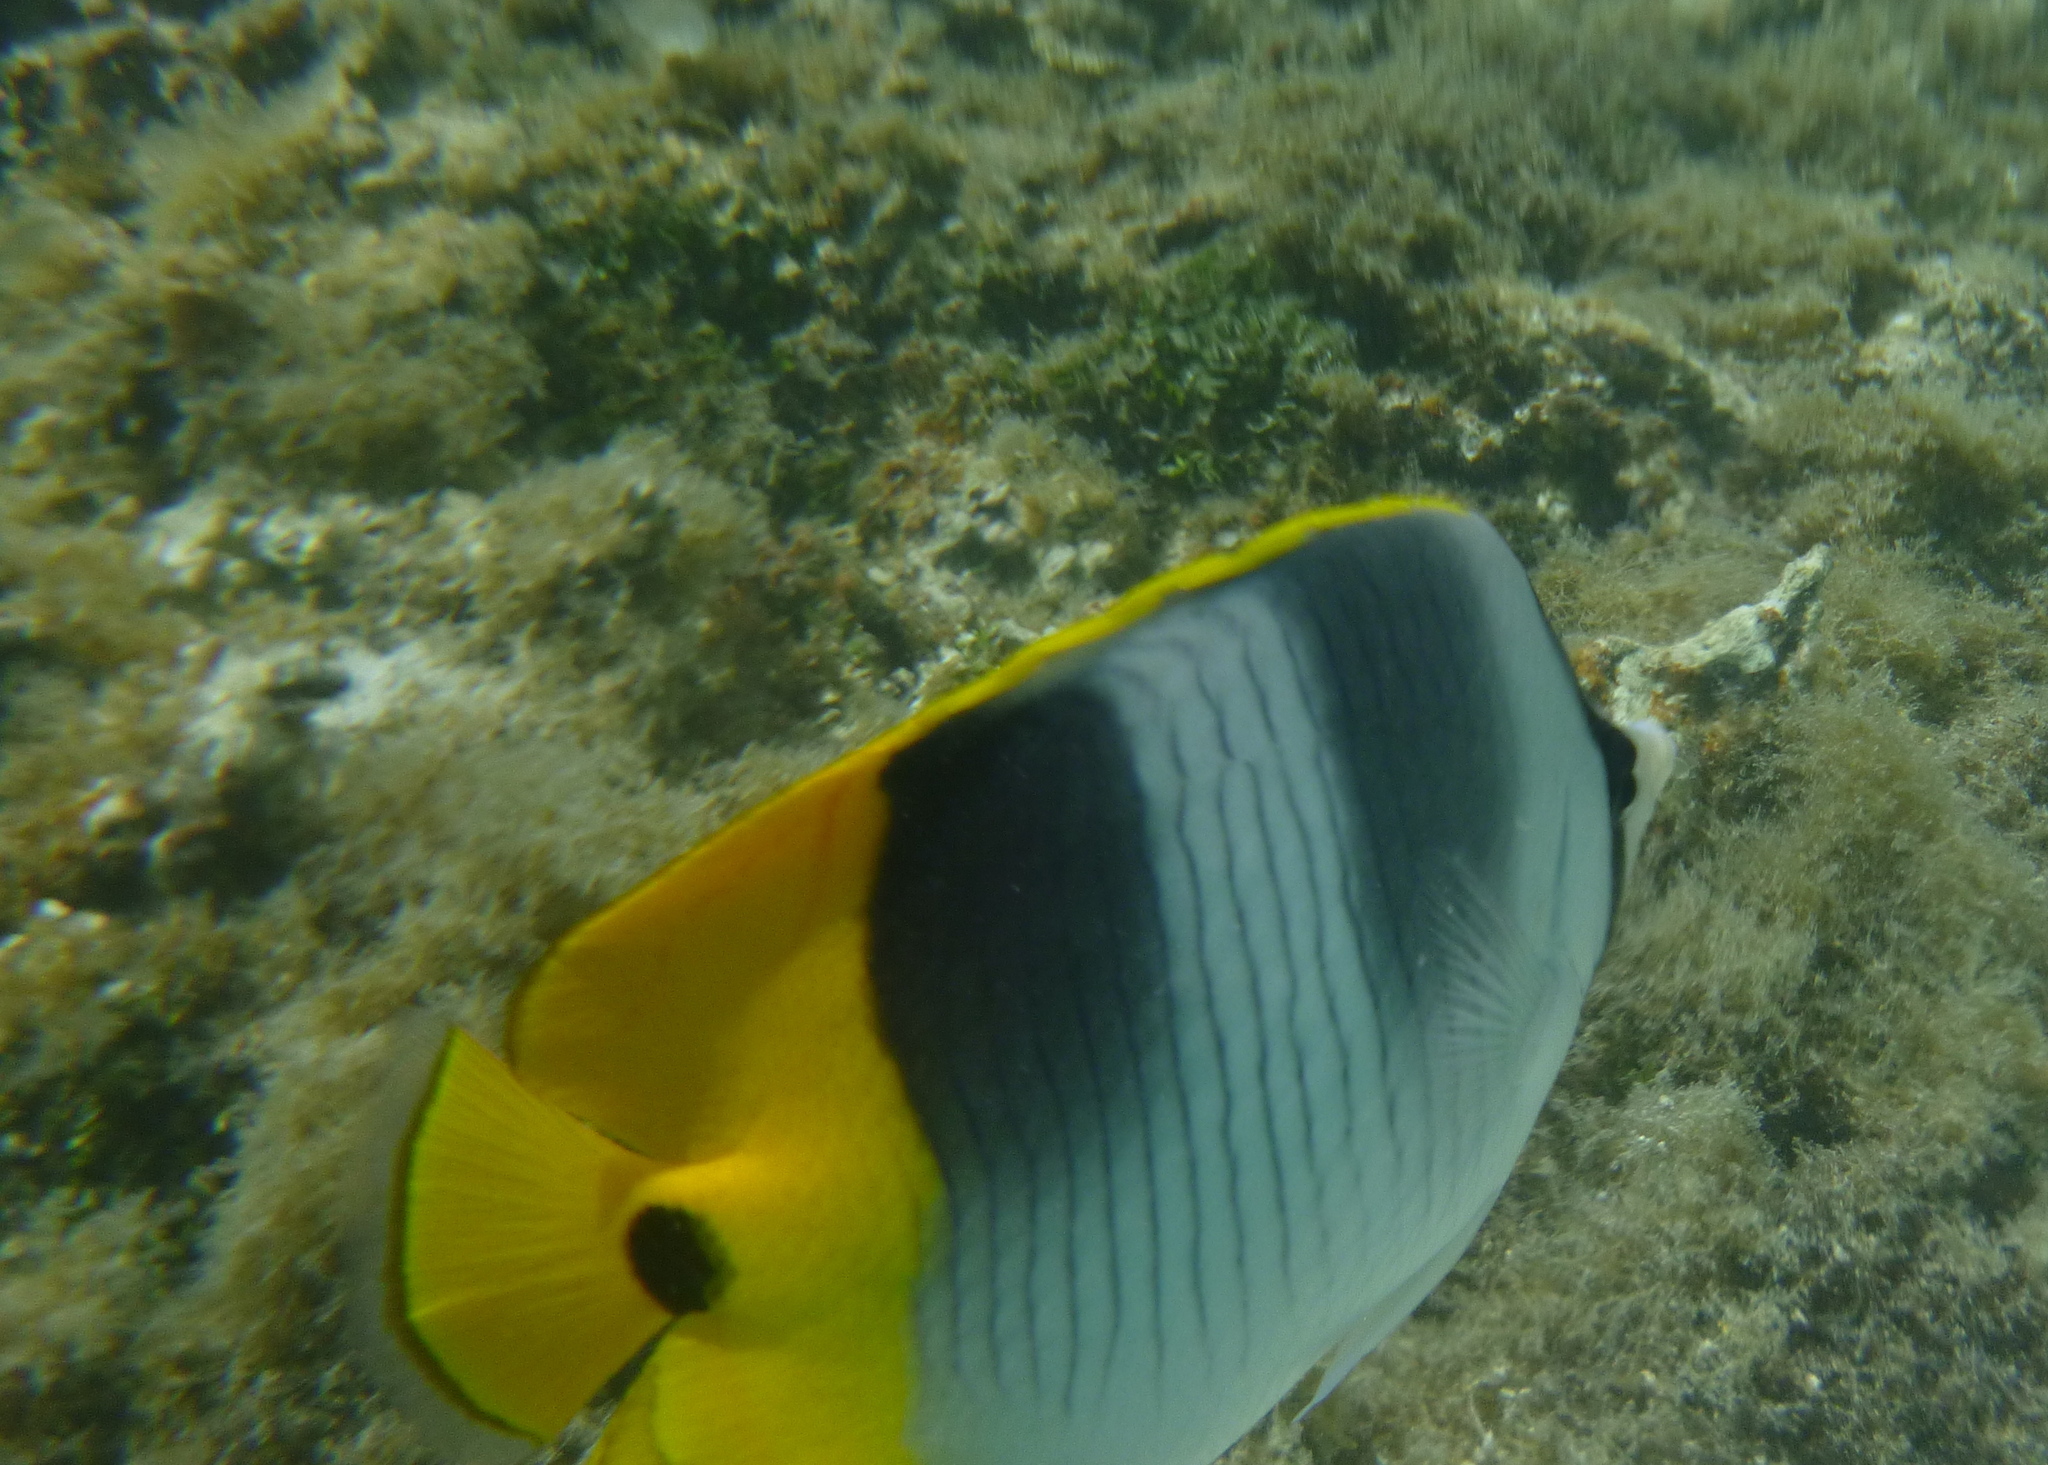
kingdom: Animalia
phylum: Chordata
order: Perciformes
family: Chaetodontidae
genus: Chaetodon
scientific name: Chaetodon ulietensis
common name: Pacific double-saddle butterflyfish
